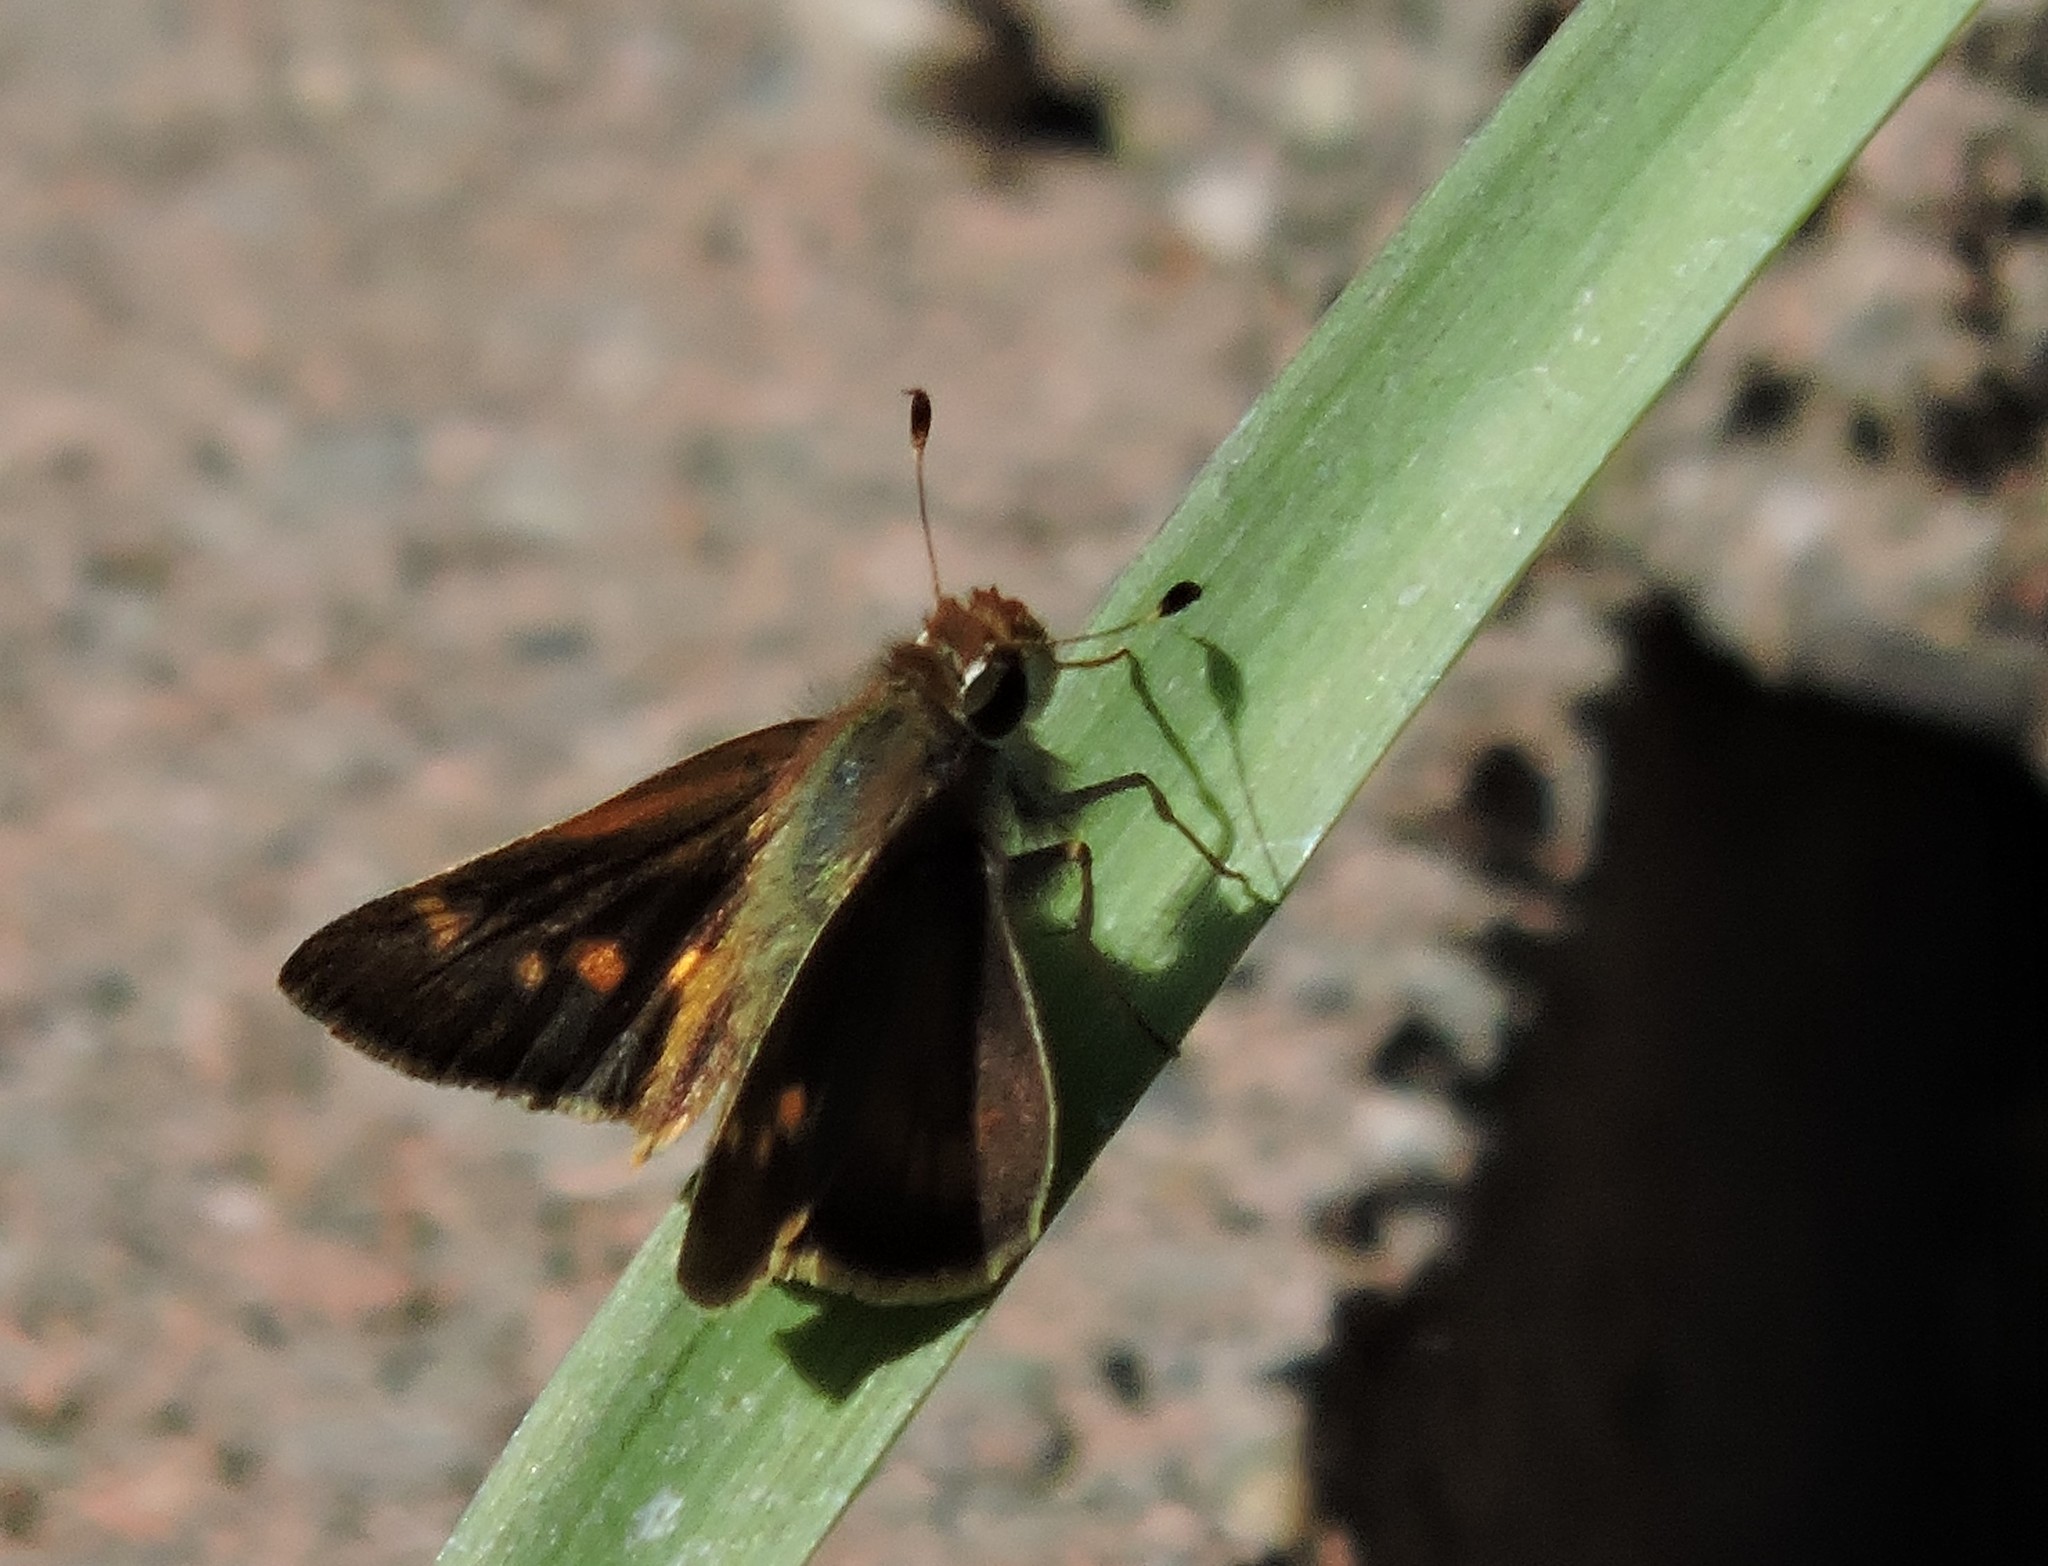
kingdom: Animalia
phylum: Arthropoda
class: Insecta
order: Lepidoptera
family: Hesperiidae
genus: Lon
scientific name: Lon melane
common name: Umber skipper
